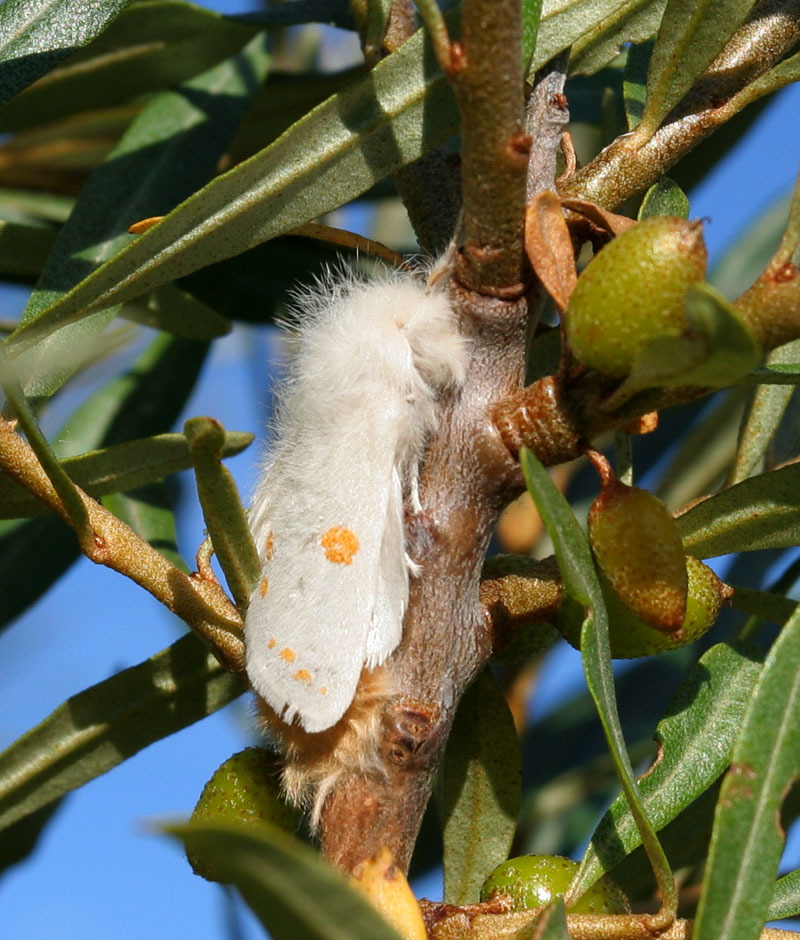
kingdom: Animalia
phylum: Arthropoda
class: Insecta
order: Lepidoptera
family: Erebidae
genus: Euproctis
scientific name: Euproctis kargalika
